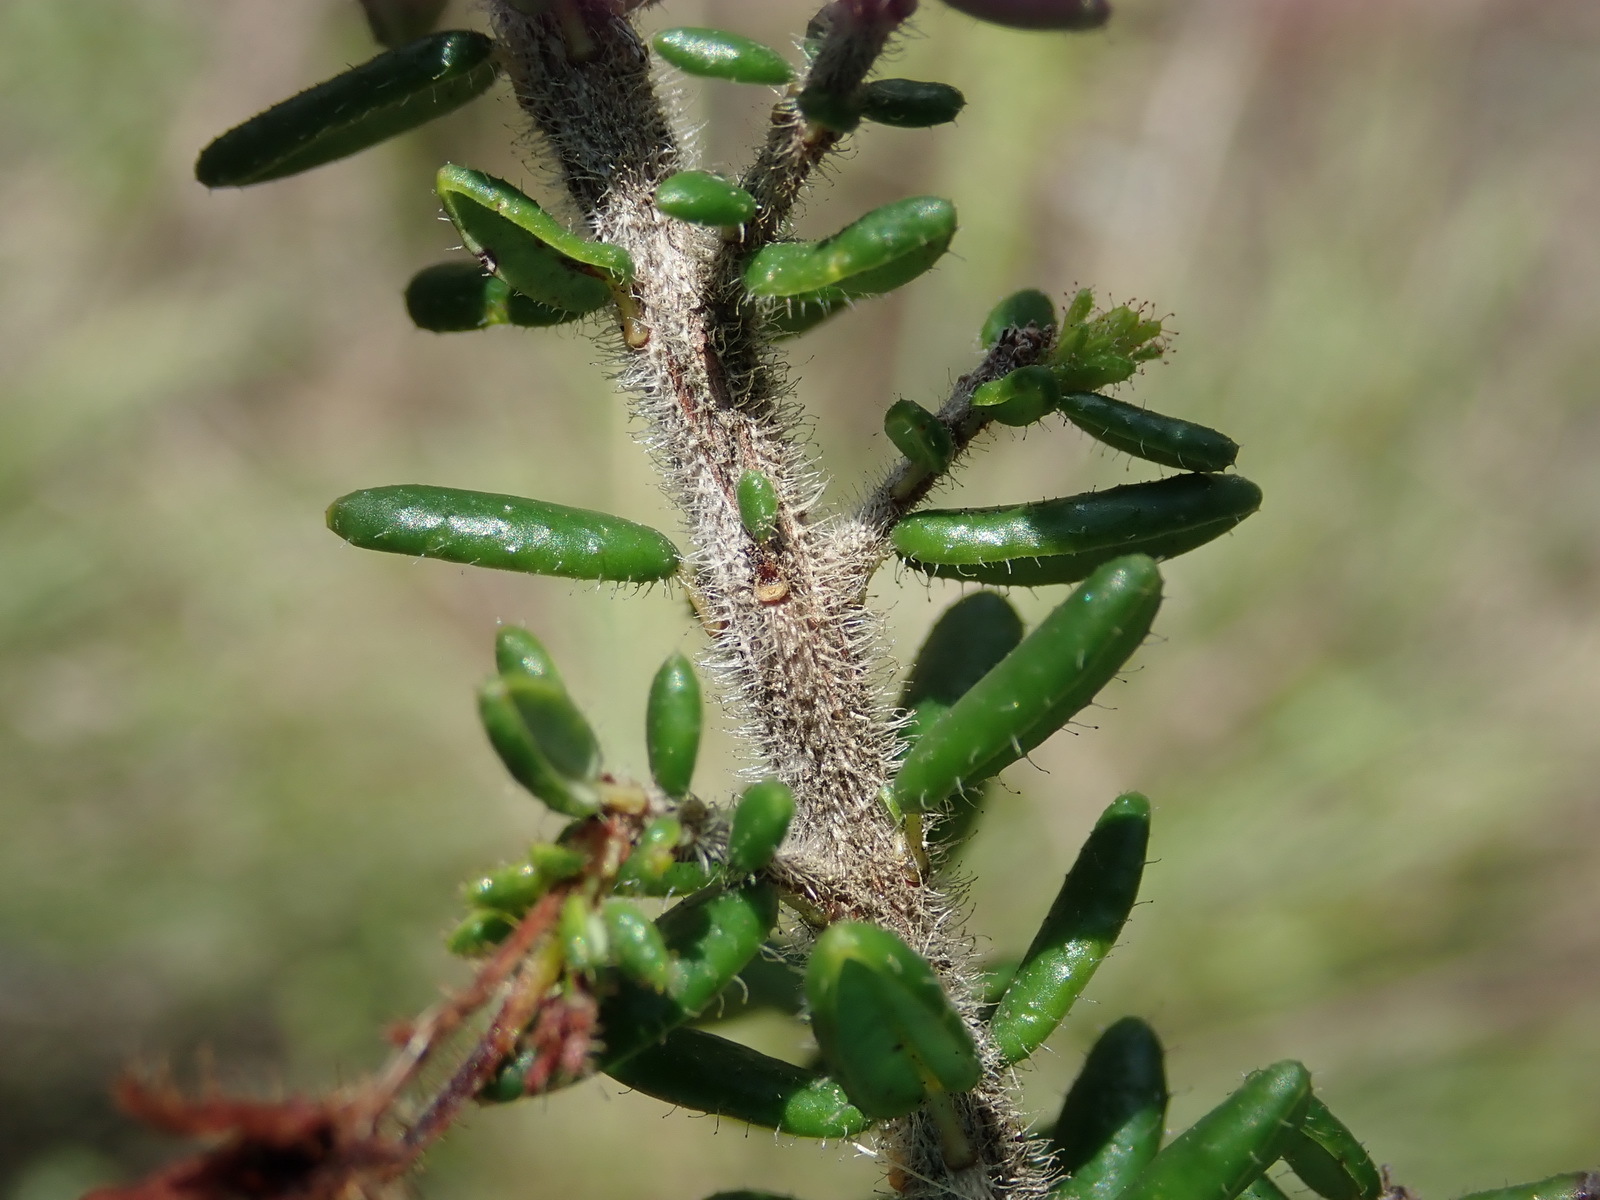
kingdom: Plantae
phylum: Tracheophyta
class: Magnoliopsida
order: Ericales
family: Ericaceae
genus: Erica
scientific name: Erica glandulosa
